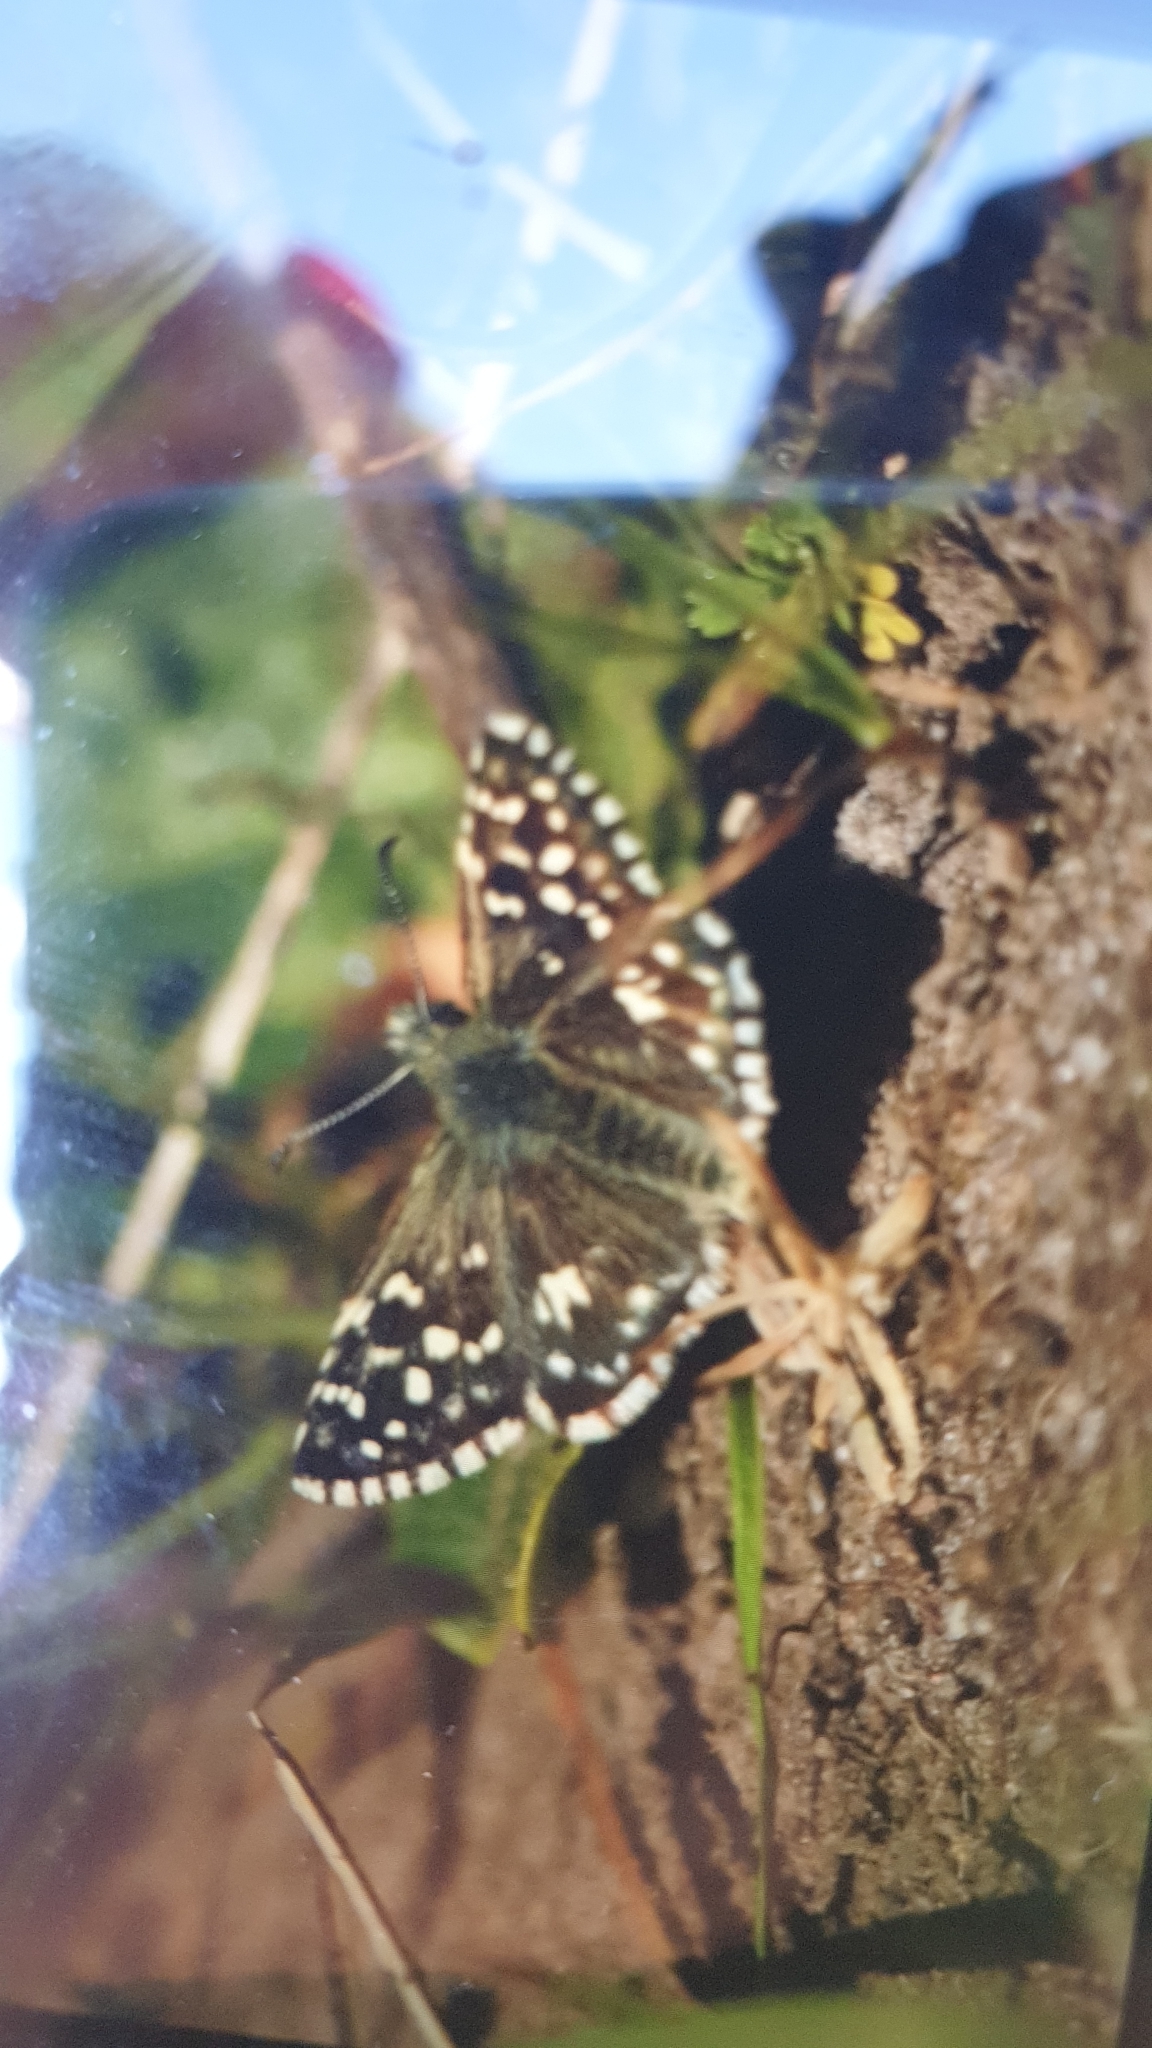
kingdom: Animalia
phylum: Arthropoda
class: Insecta
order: Lepidoptera
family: Hesperiidae
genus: Pyrgus
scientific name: Pyrgus malvae
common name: Grizzled skipper
